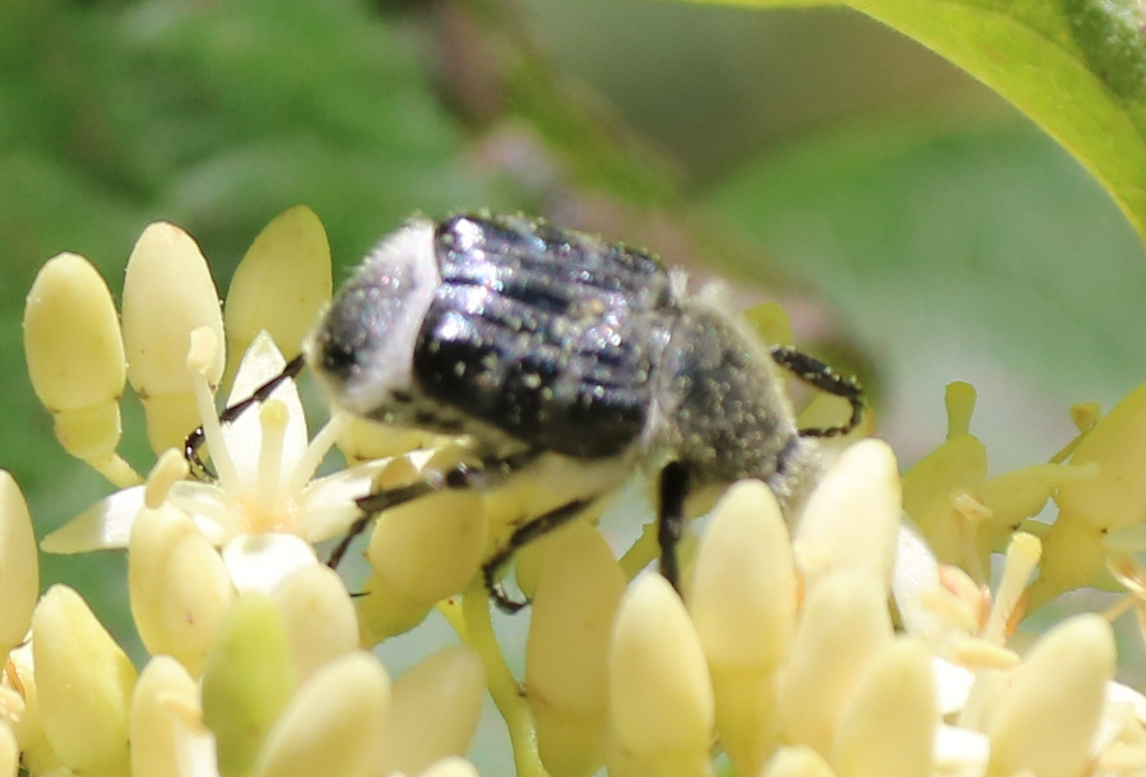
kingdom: Animalia
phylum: Arthropoda
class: Insecta
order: Coleoptera
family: Scarabaeidae
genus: Trichiotinus
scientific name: Trichiotinus texanus
